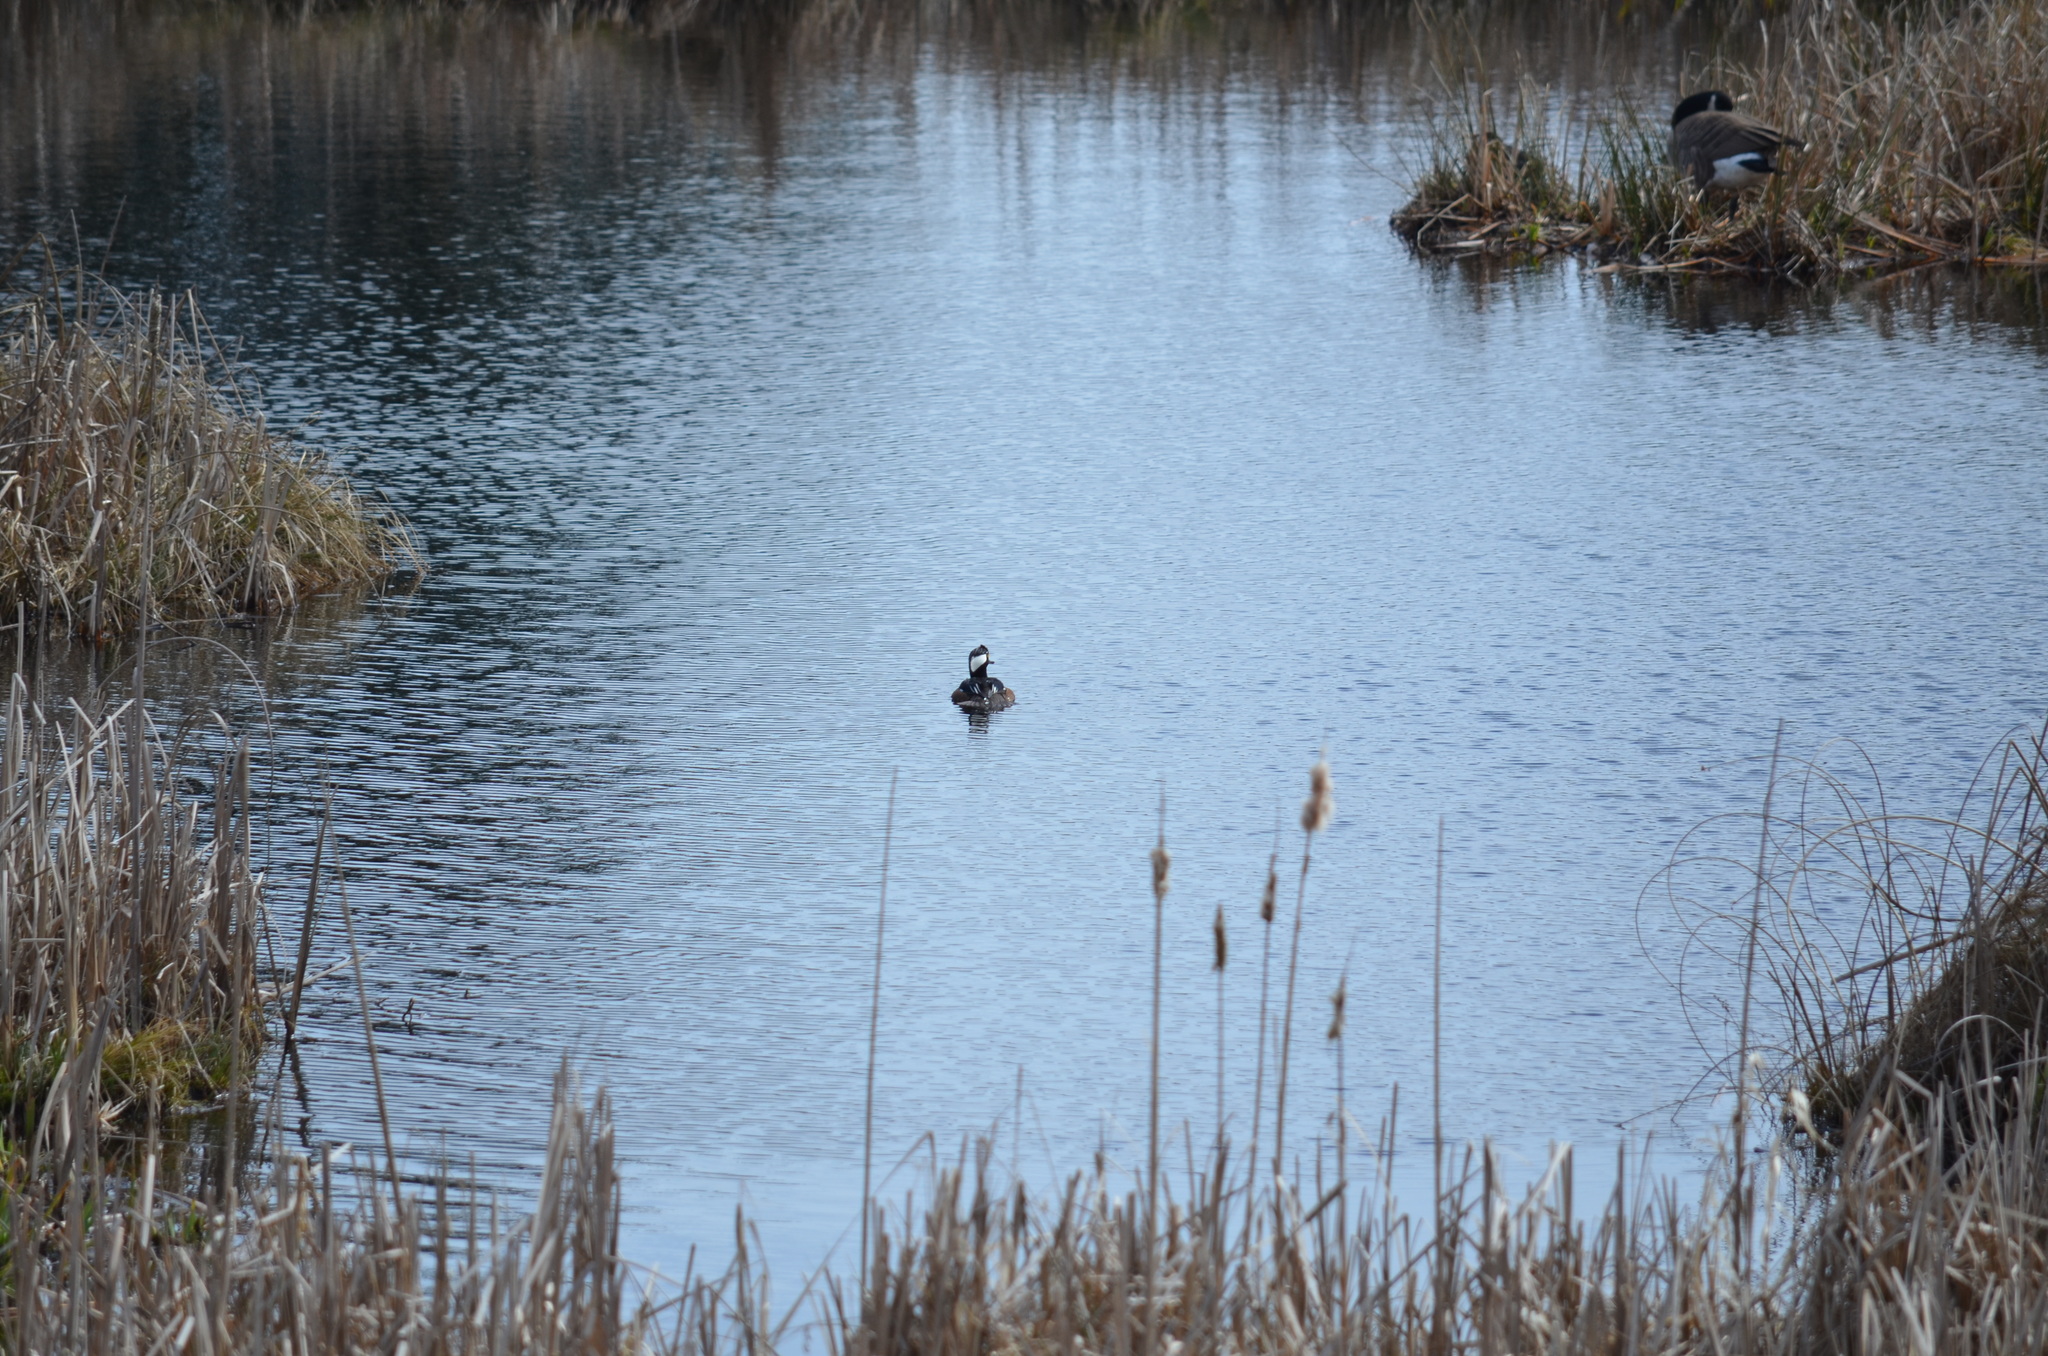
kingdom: Animalia
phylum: Chordata
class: Aves
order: Anseriformes
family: Anatidae
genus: Lophodytes
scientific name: Lophodytes cucullatus
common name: Hooded merganser
